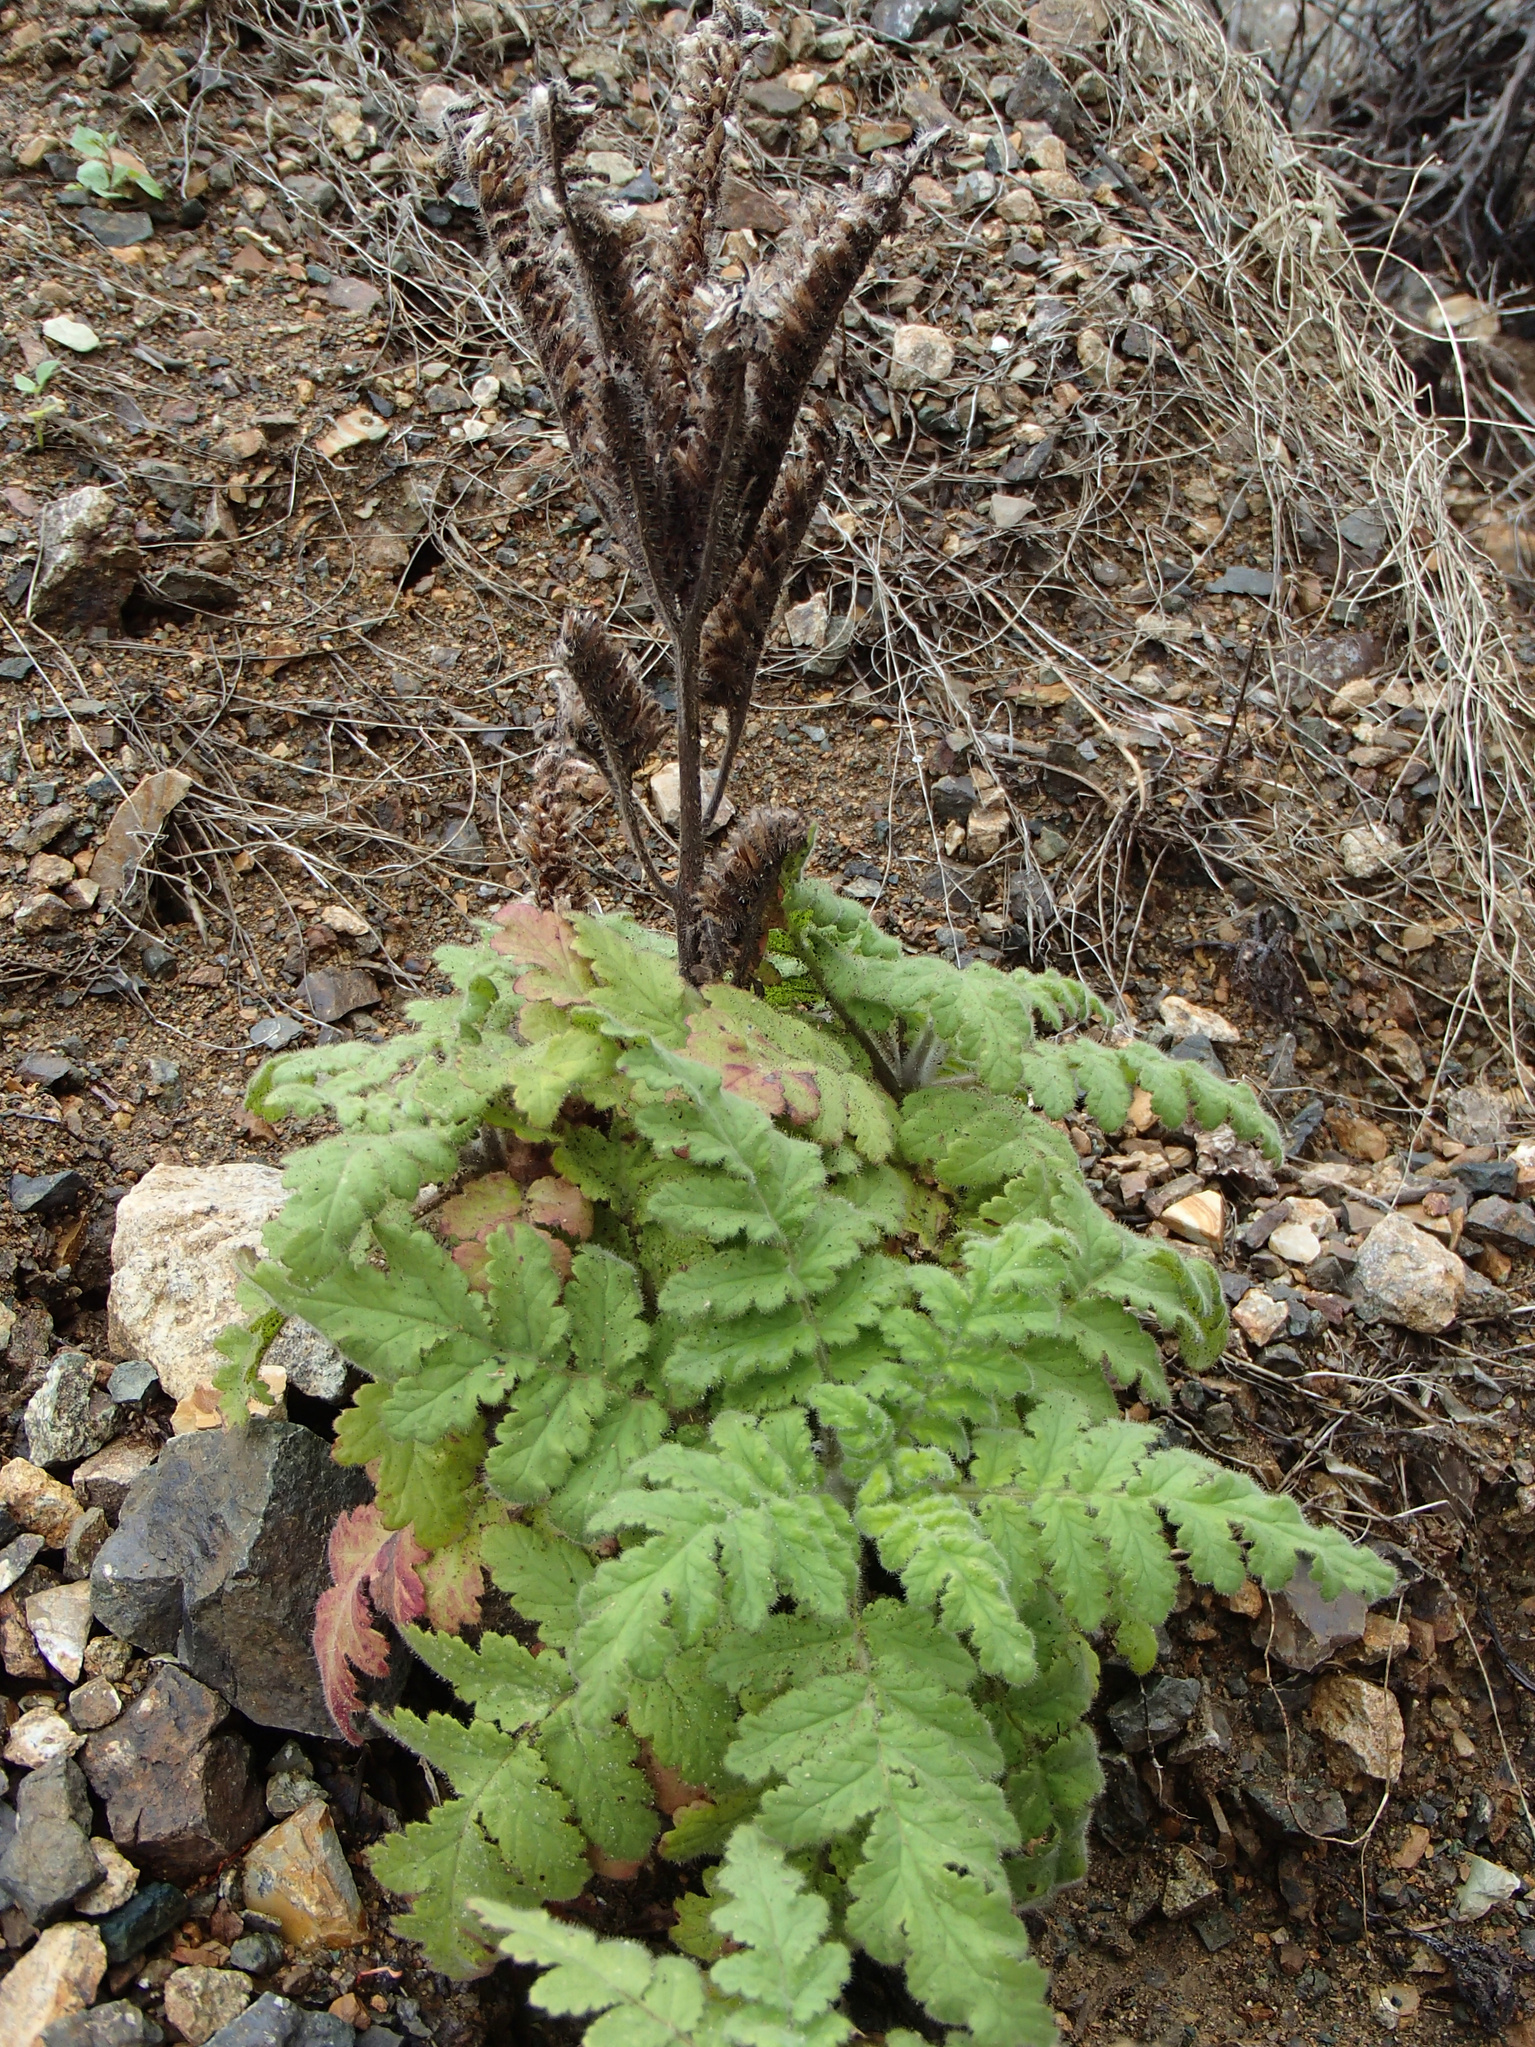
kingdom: Plantae
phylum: Tracheophyta
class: Magnoliopsida
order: Boraginales
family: Hydrophyllaceae
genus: Phacelia
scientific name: Phacelia ixodes
